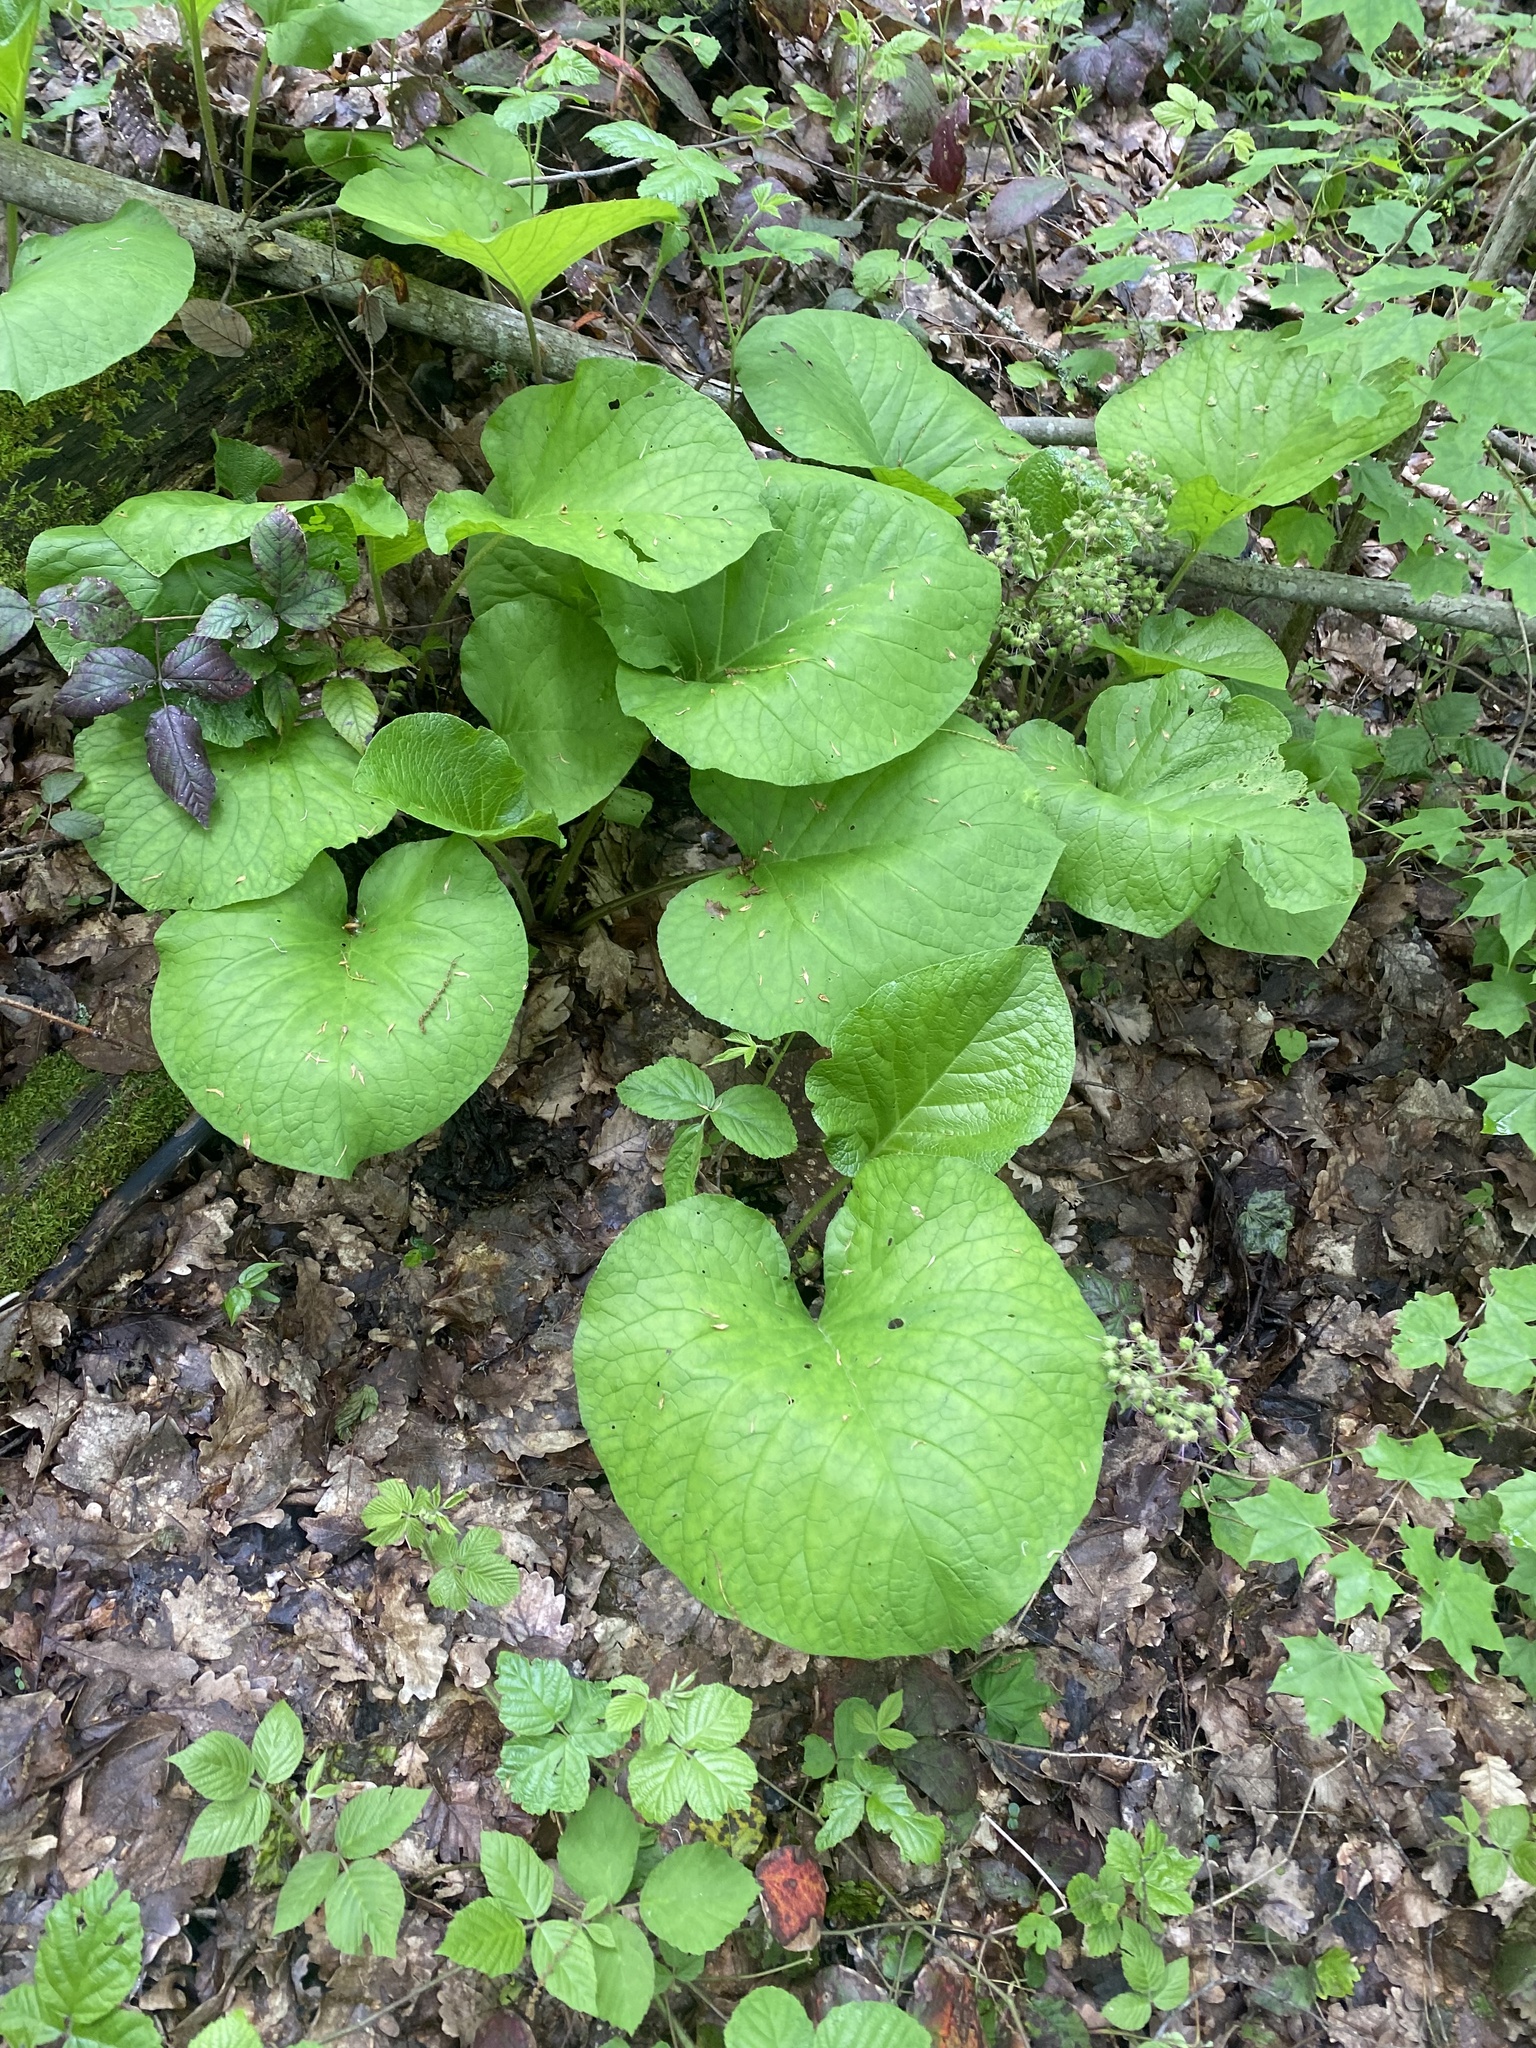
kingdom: Plantae
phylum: Tracheophyta
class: Magnoliopsida
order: Boraginales
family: Boraginaceae
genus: Trachystemon
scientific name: Trachystemon orientale
